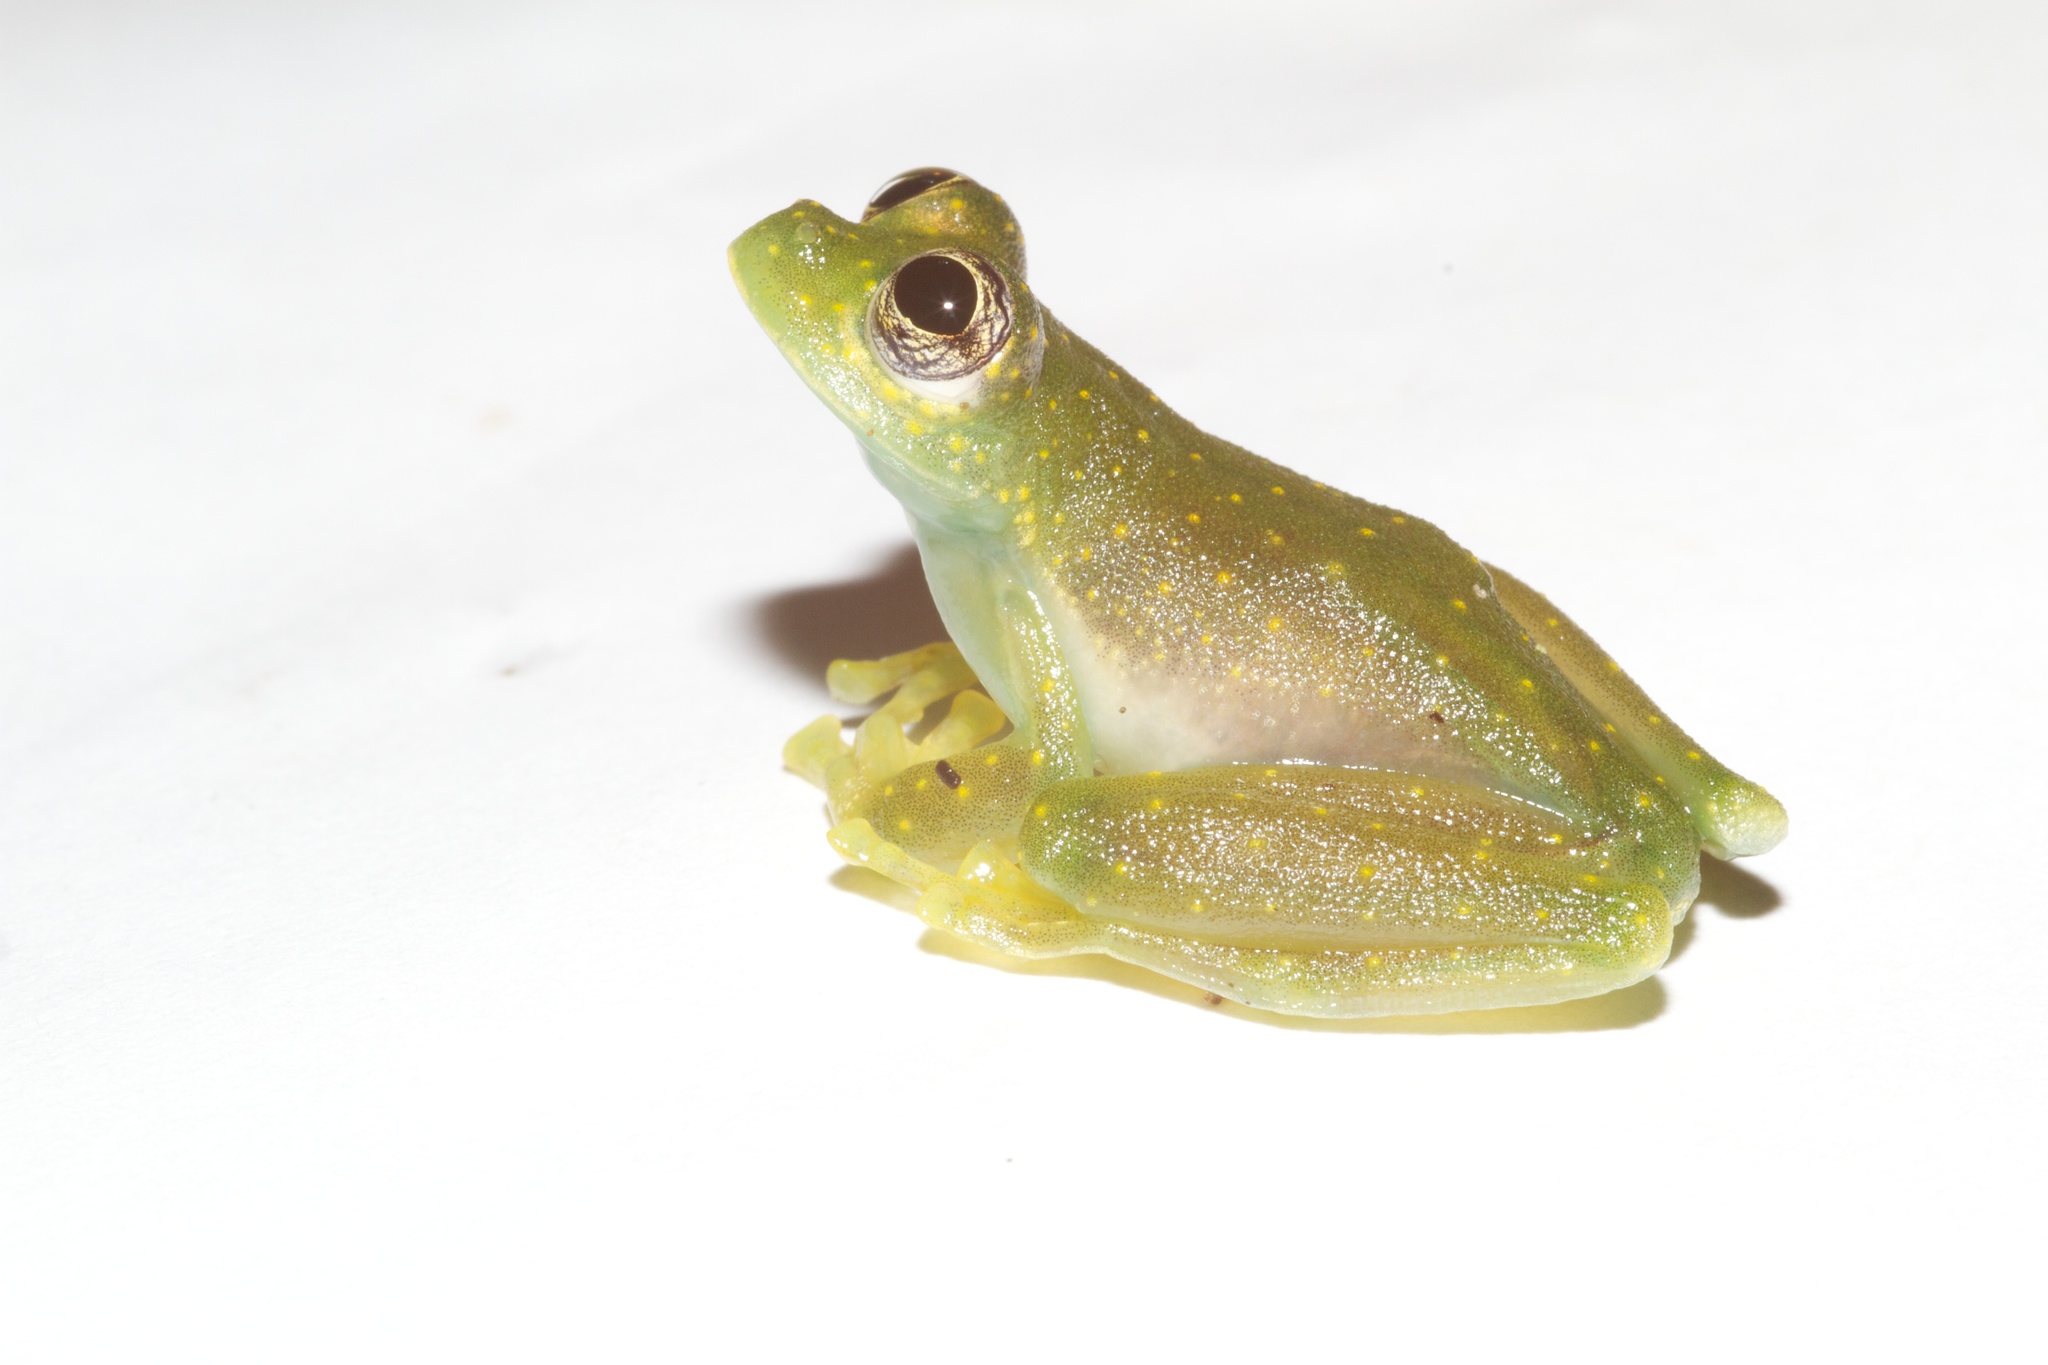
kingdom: Animalia
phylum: Chordata
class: Amphibia
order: Anura
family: Centrolenidae
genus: Sachatamia
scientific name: Sachatamia albomaculata
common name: Rana de cristal de cascada
